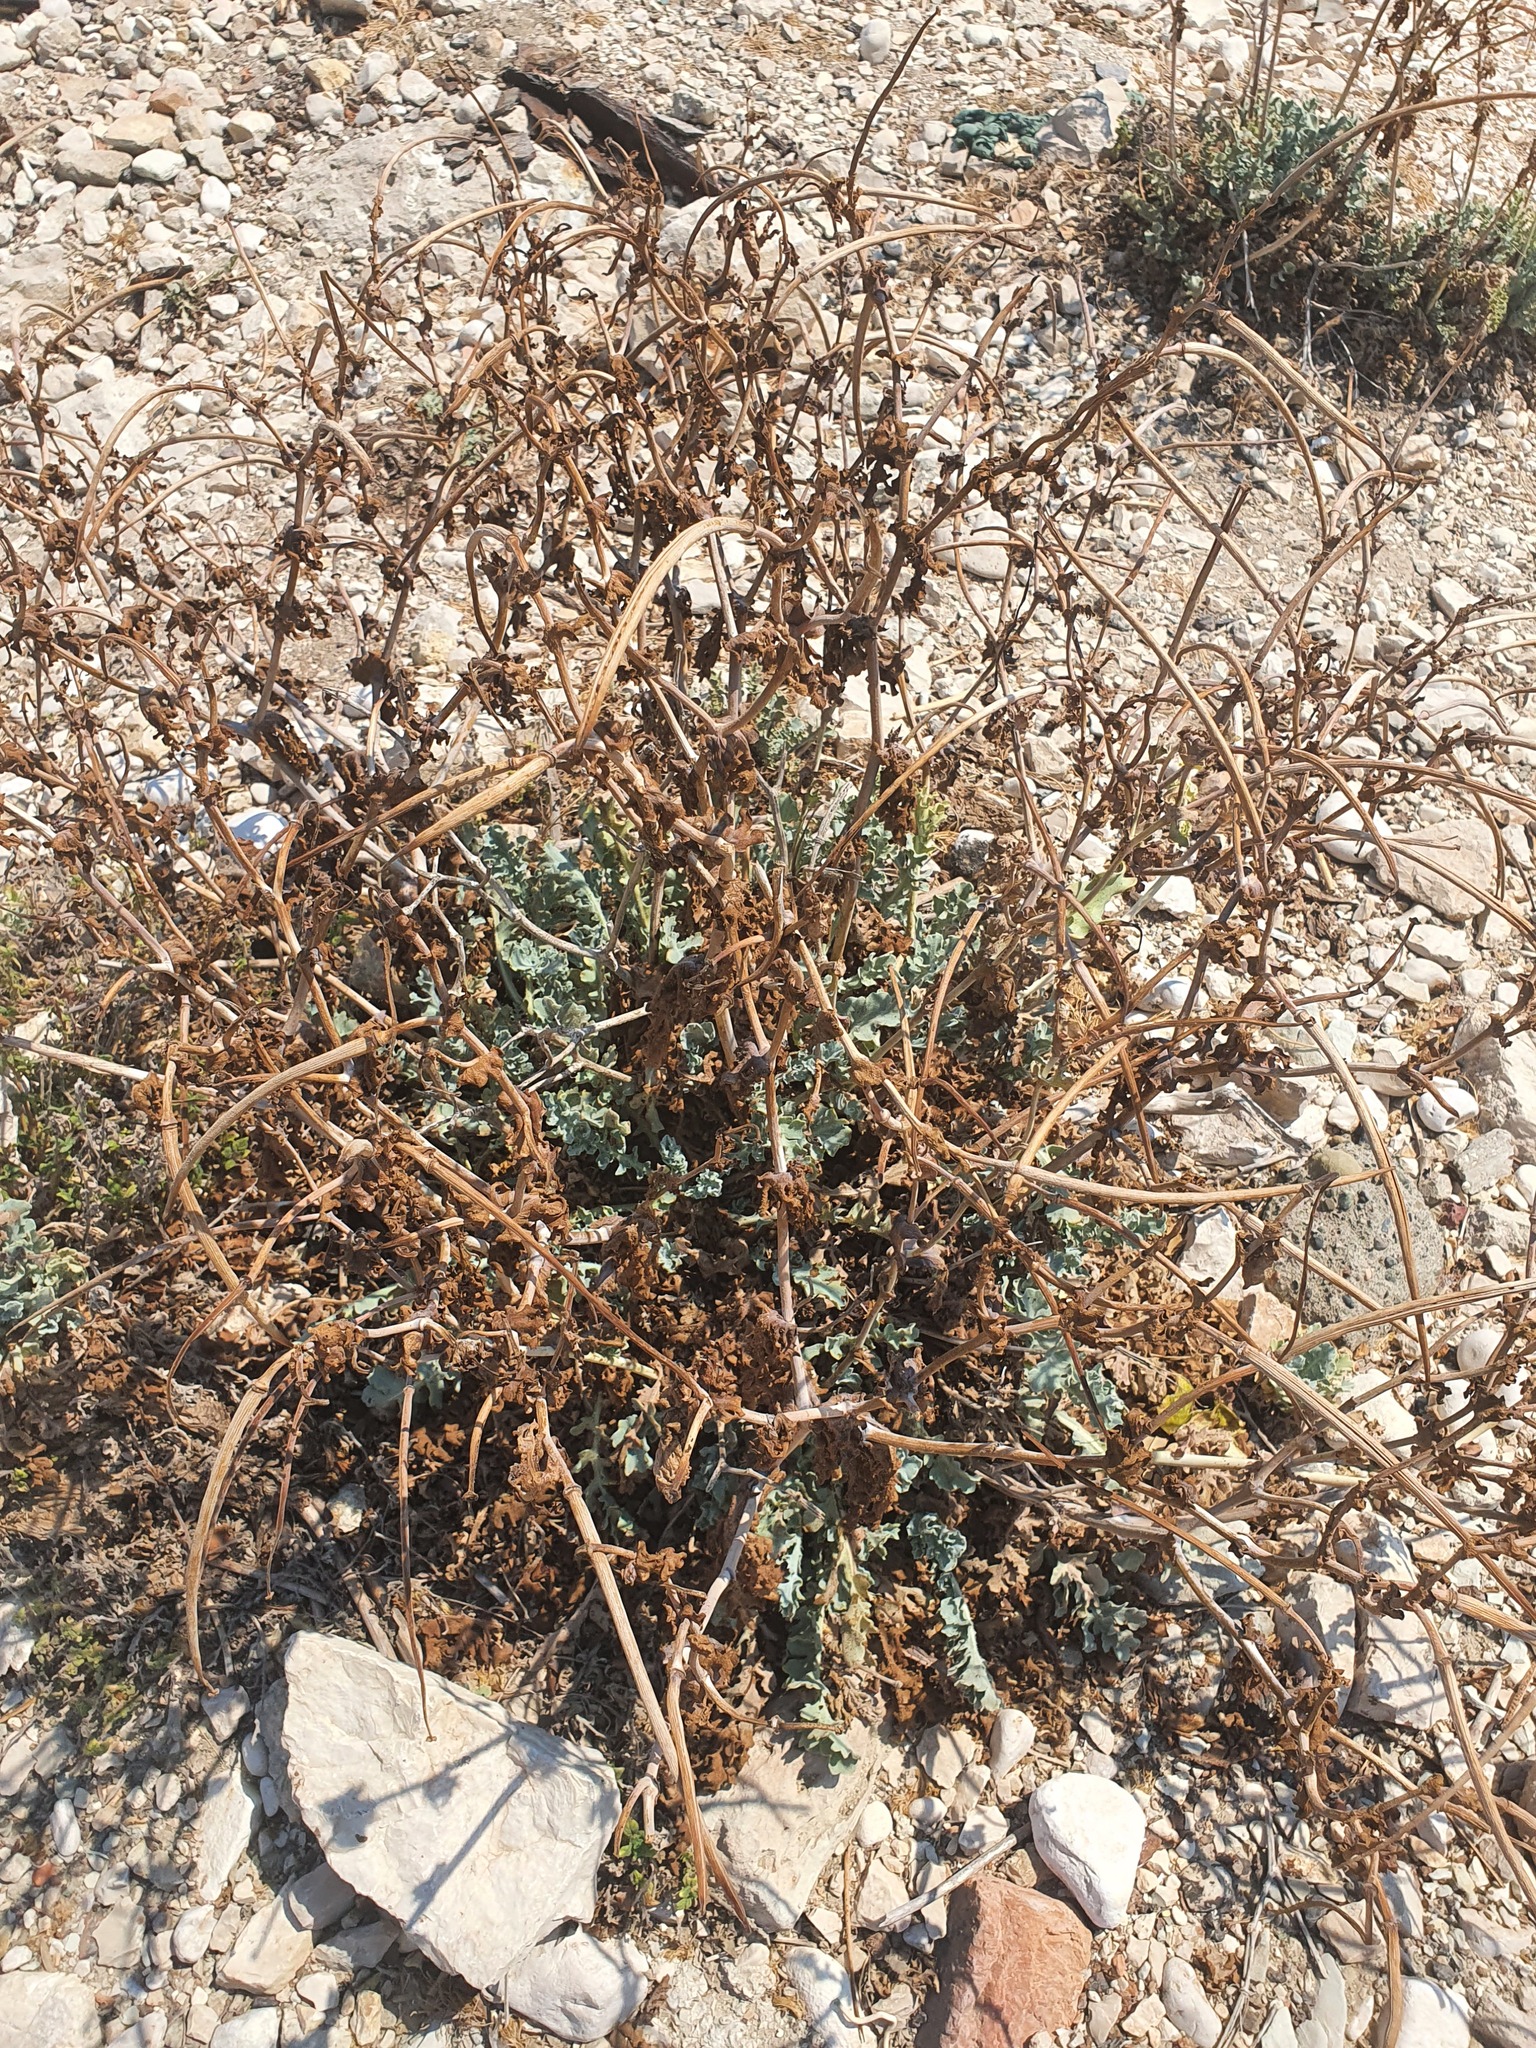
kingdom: Plantae
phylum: Tracheophyta
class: Magnoliopsida
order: Ranunculales
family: Papaveraceae
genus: Glaucium
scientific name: Glaucium flavum
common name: Yellow horned-poppy
